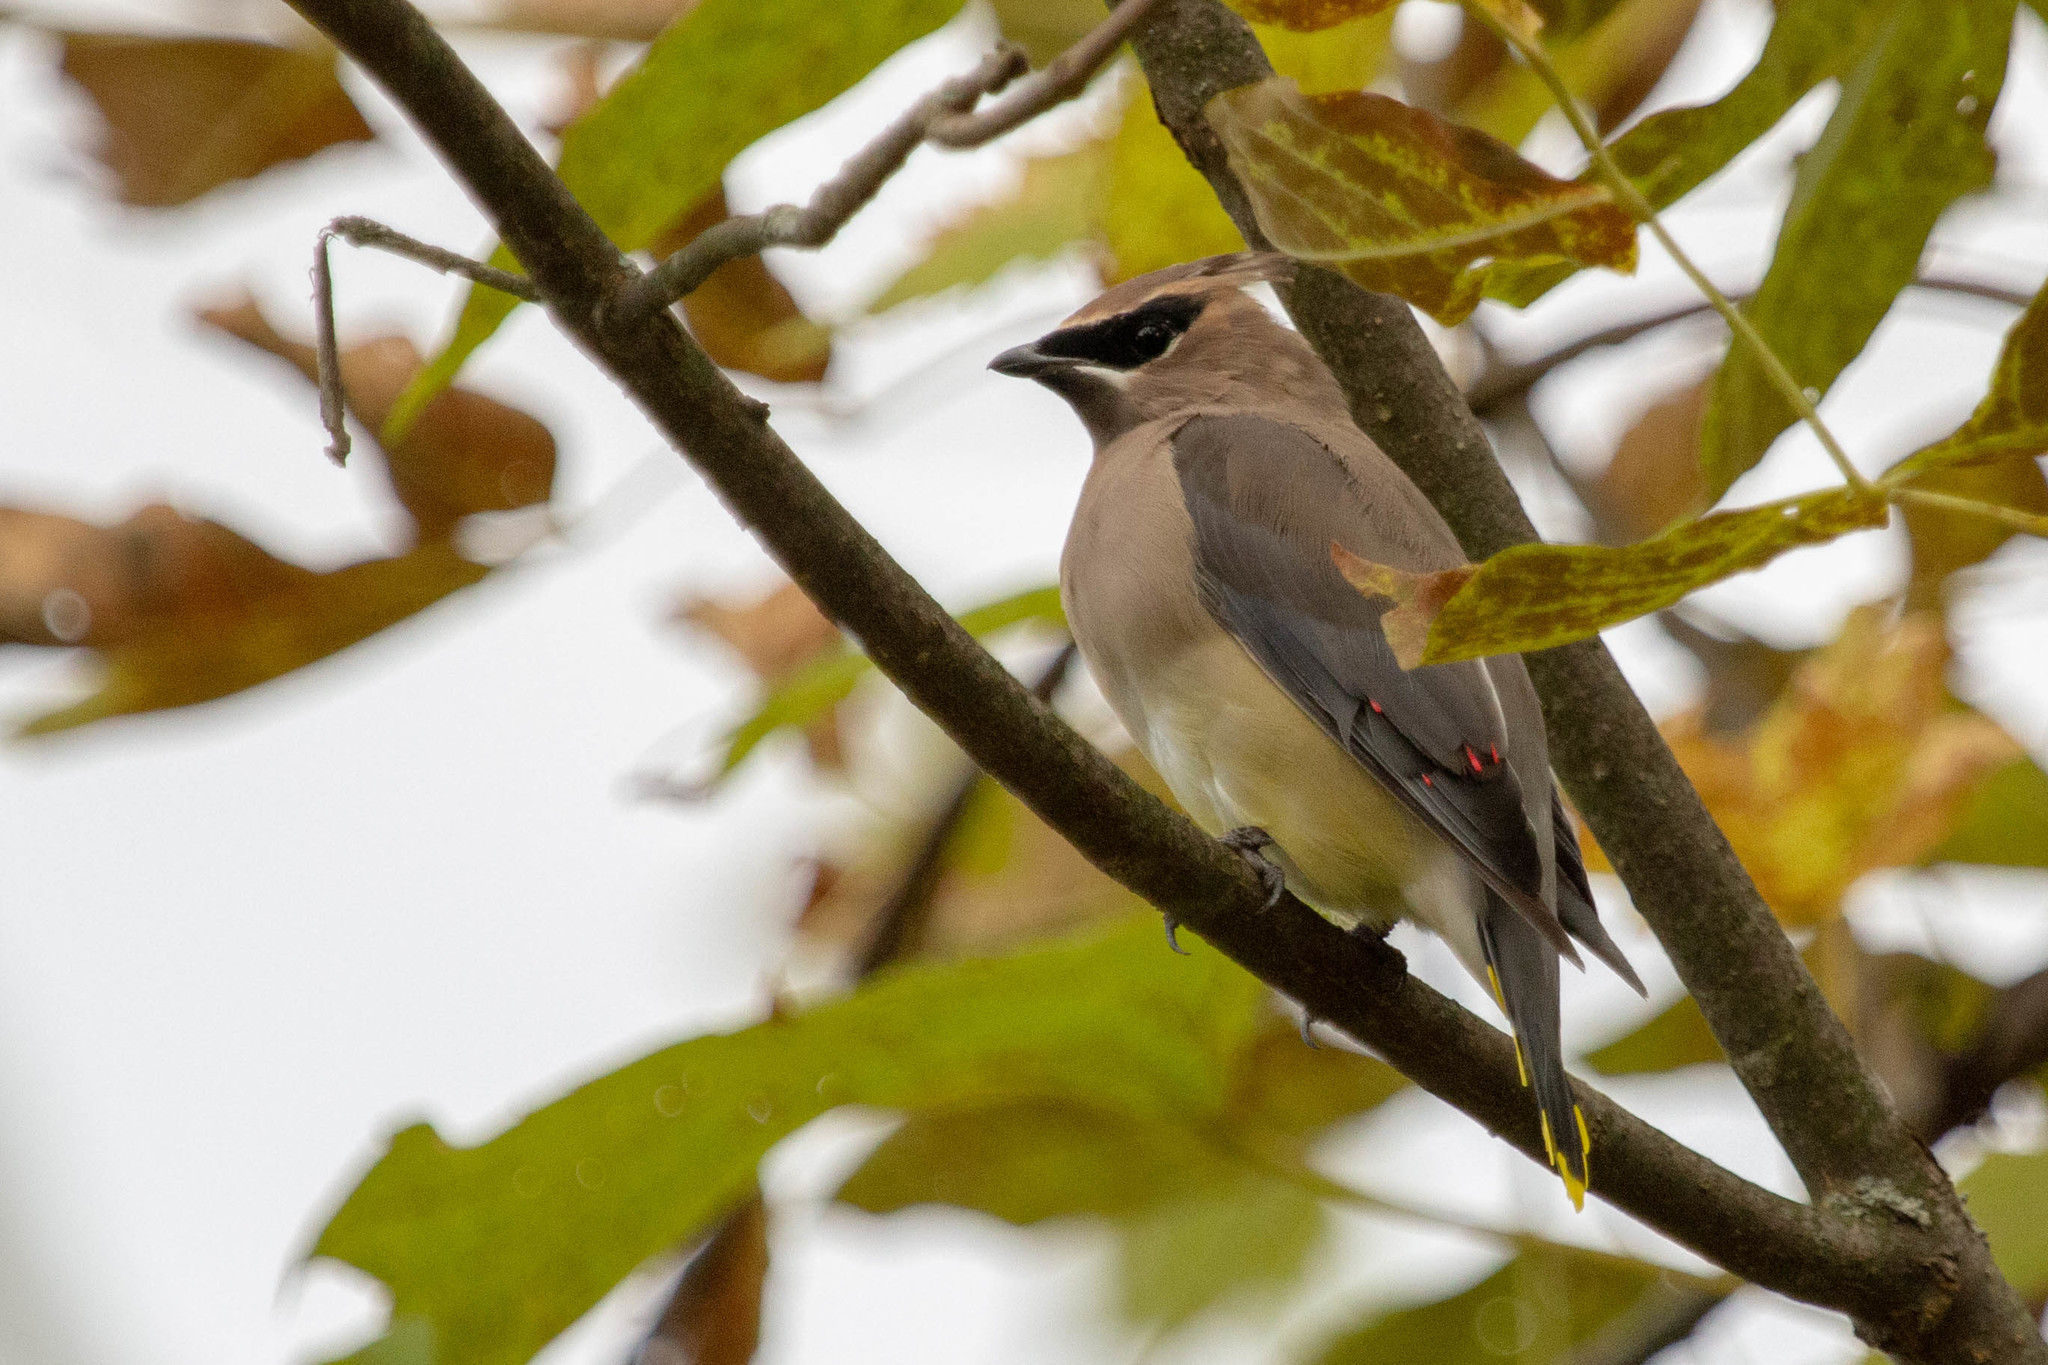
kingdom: Animalia
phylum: Chordata
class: Aves
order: Passeriformes
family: Bombycillidae
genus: Bombycilla
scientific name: Bombycilla cedrorum
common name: Cedar waxwing
